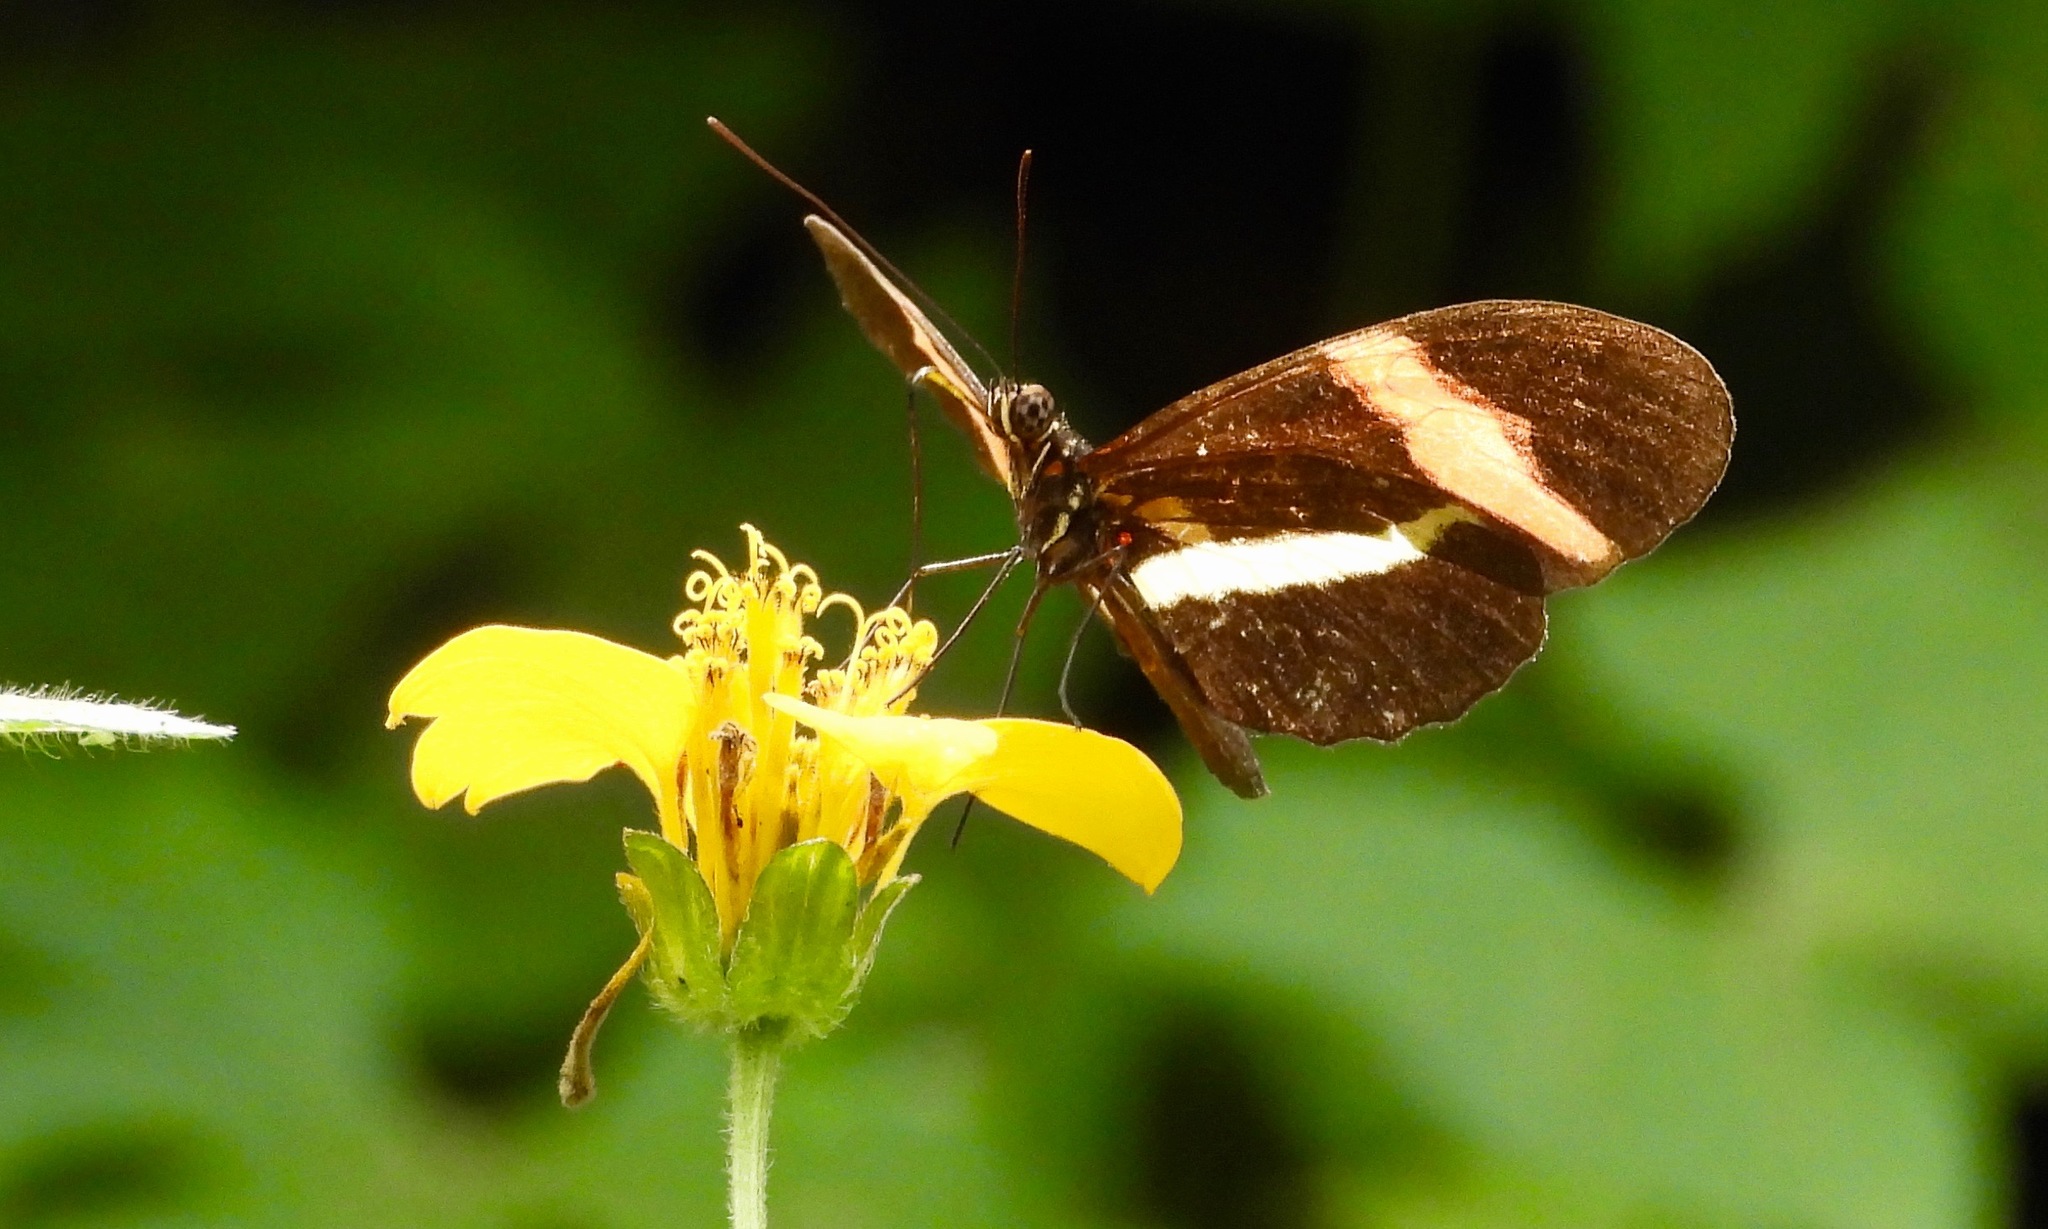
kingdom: Animalia
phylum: Arthropoda
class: Insecta
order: Lepidoptera
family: Nymphalidae
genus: Heliconius
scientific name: Heliconius erato
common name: Common patch longwing
